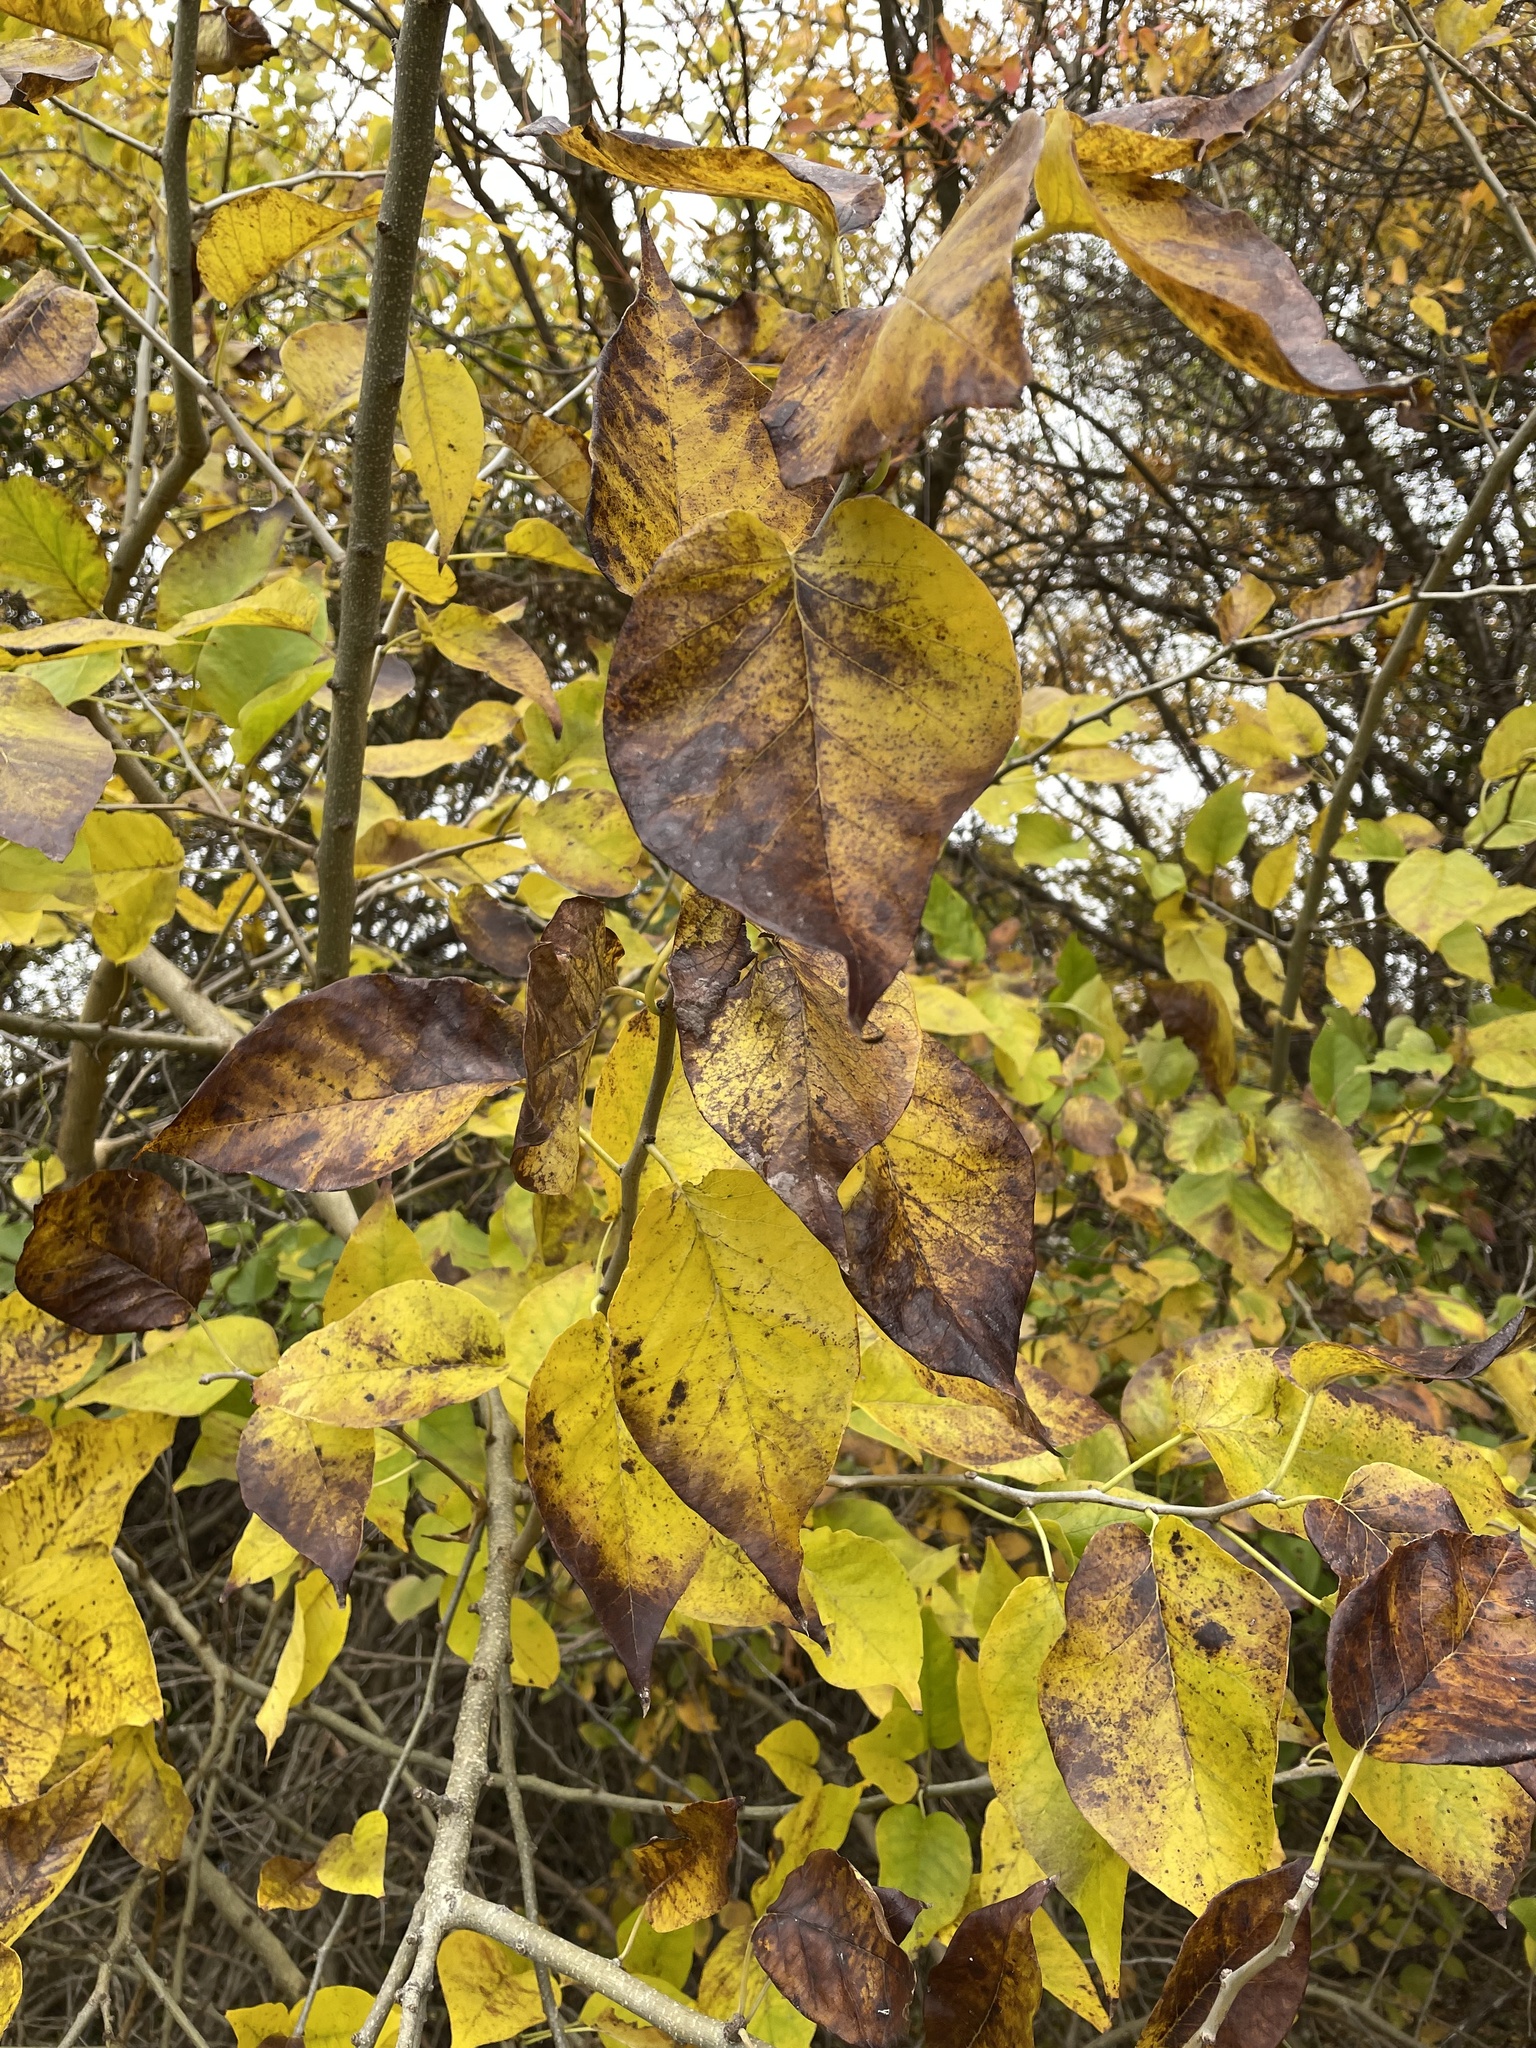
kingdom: Plantae
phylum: Tracheophyta
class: Magnoliopsida
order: Rosales
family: Moraceae
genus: Maclura
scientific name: Maclura pomifera
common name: Osage-orange
